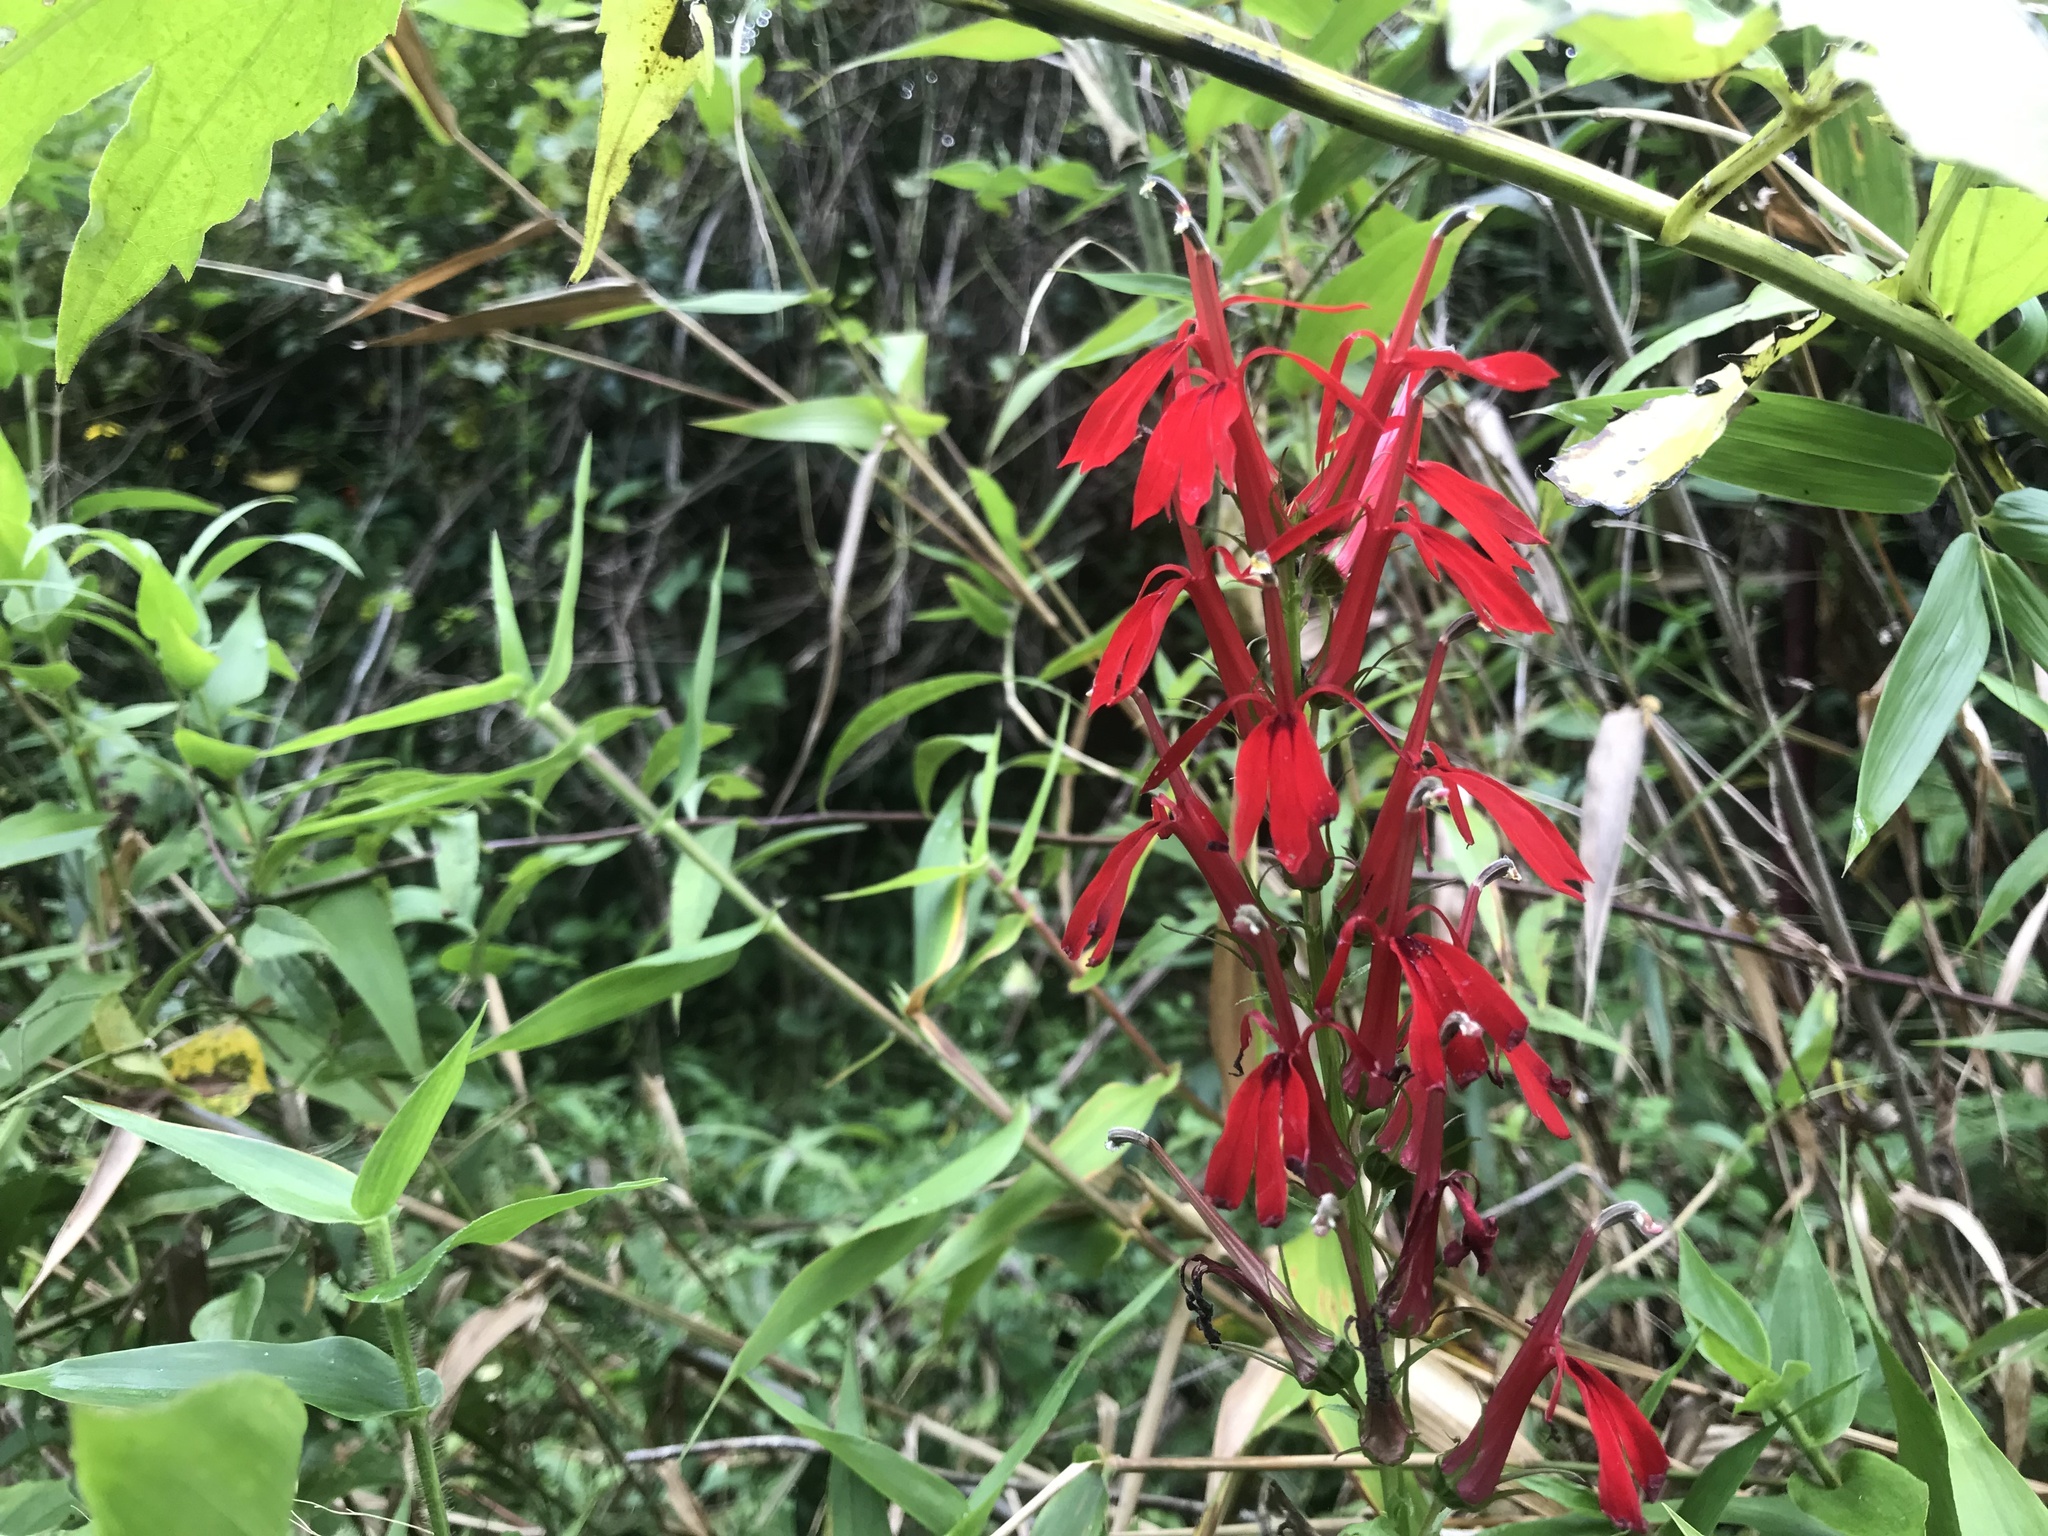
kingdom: Plantae
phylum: Tracheophyta
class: Magnoliopsida
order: Asterales
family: Campanulaceae
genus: Lobelia
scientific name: Lobelia cardinalis
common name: Cardinal flower
